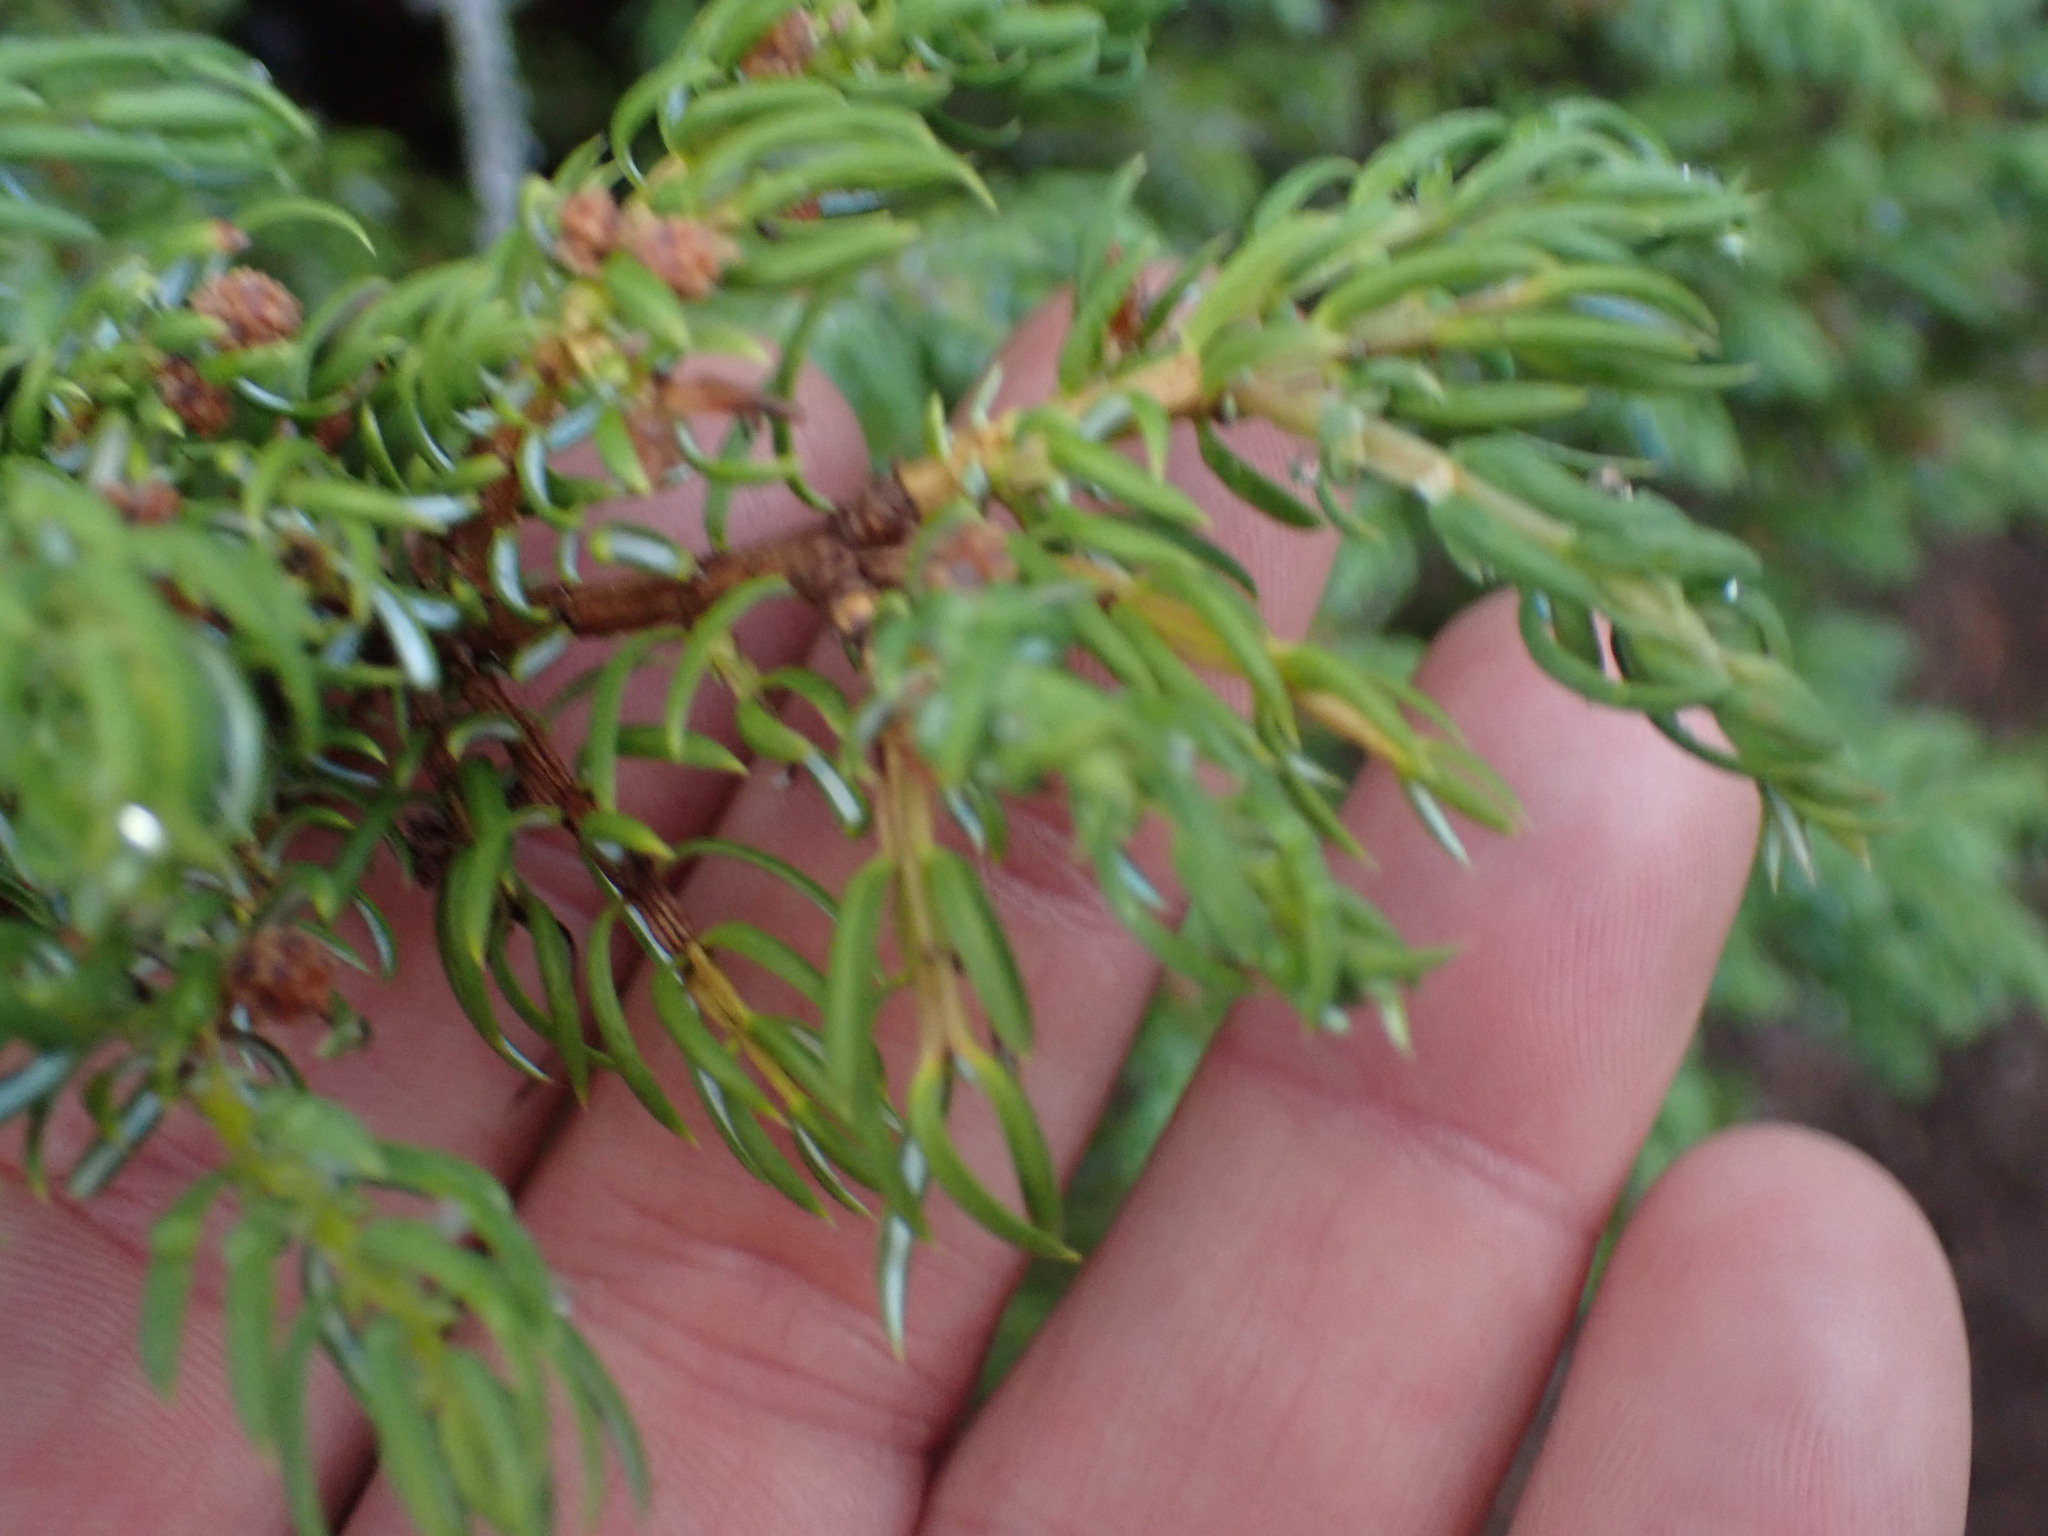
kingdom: Plantae
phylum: Tracheophyta
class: Pinopsida
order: Pinales
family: Cupressaceae
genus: Juniperus
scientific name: Juniperus communis
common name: Common juniper
